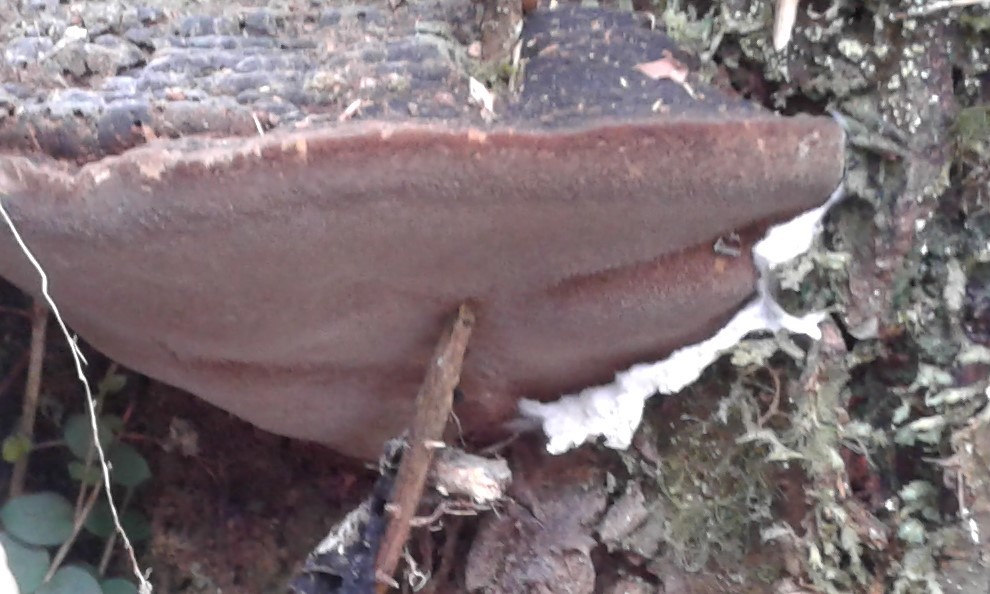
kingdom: Fungi
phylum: Basidiomycota
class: Agaricomycetes
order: Polyporales
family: Polyporaceae
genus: Ganoderma
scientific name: Ganoderma
